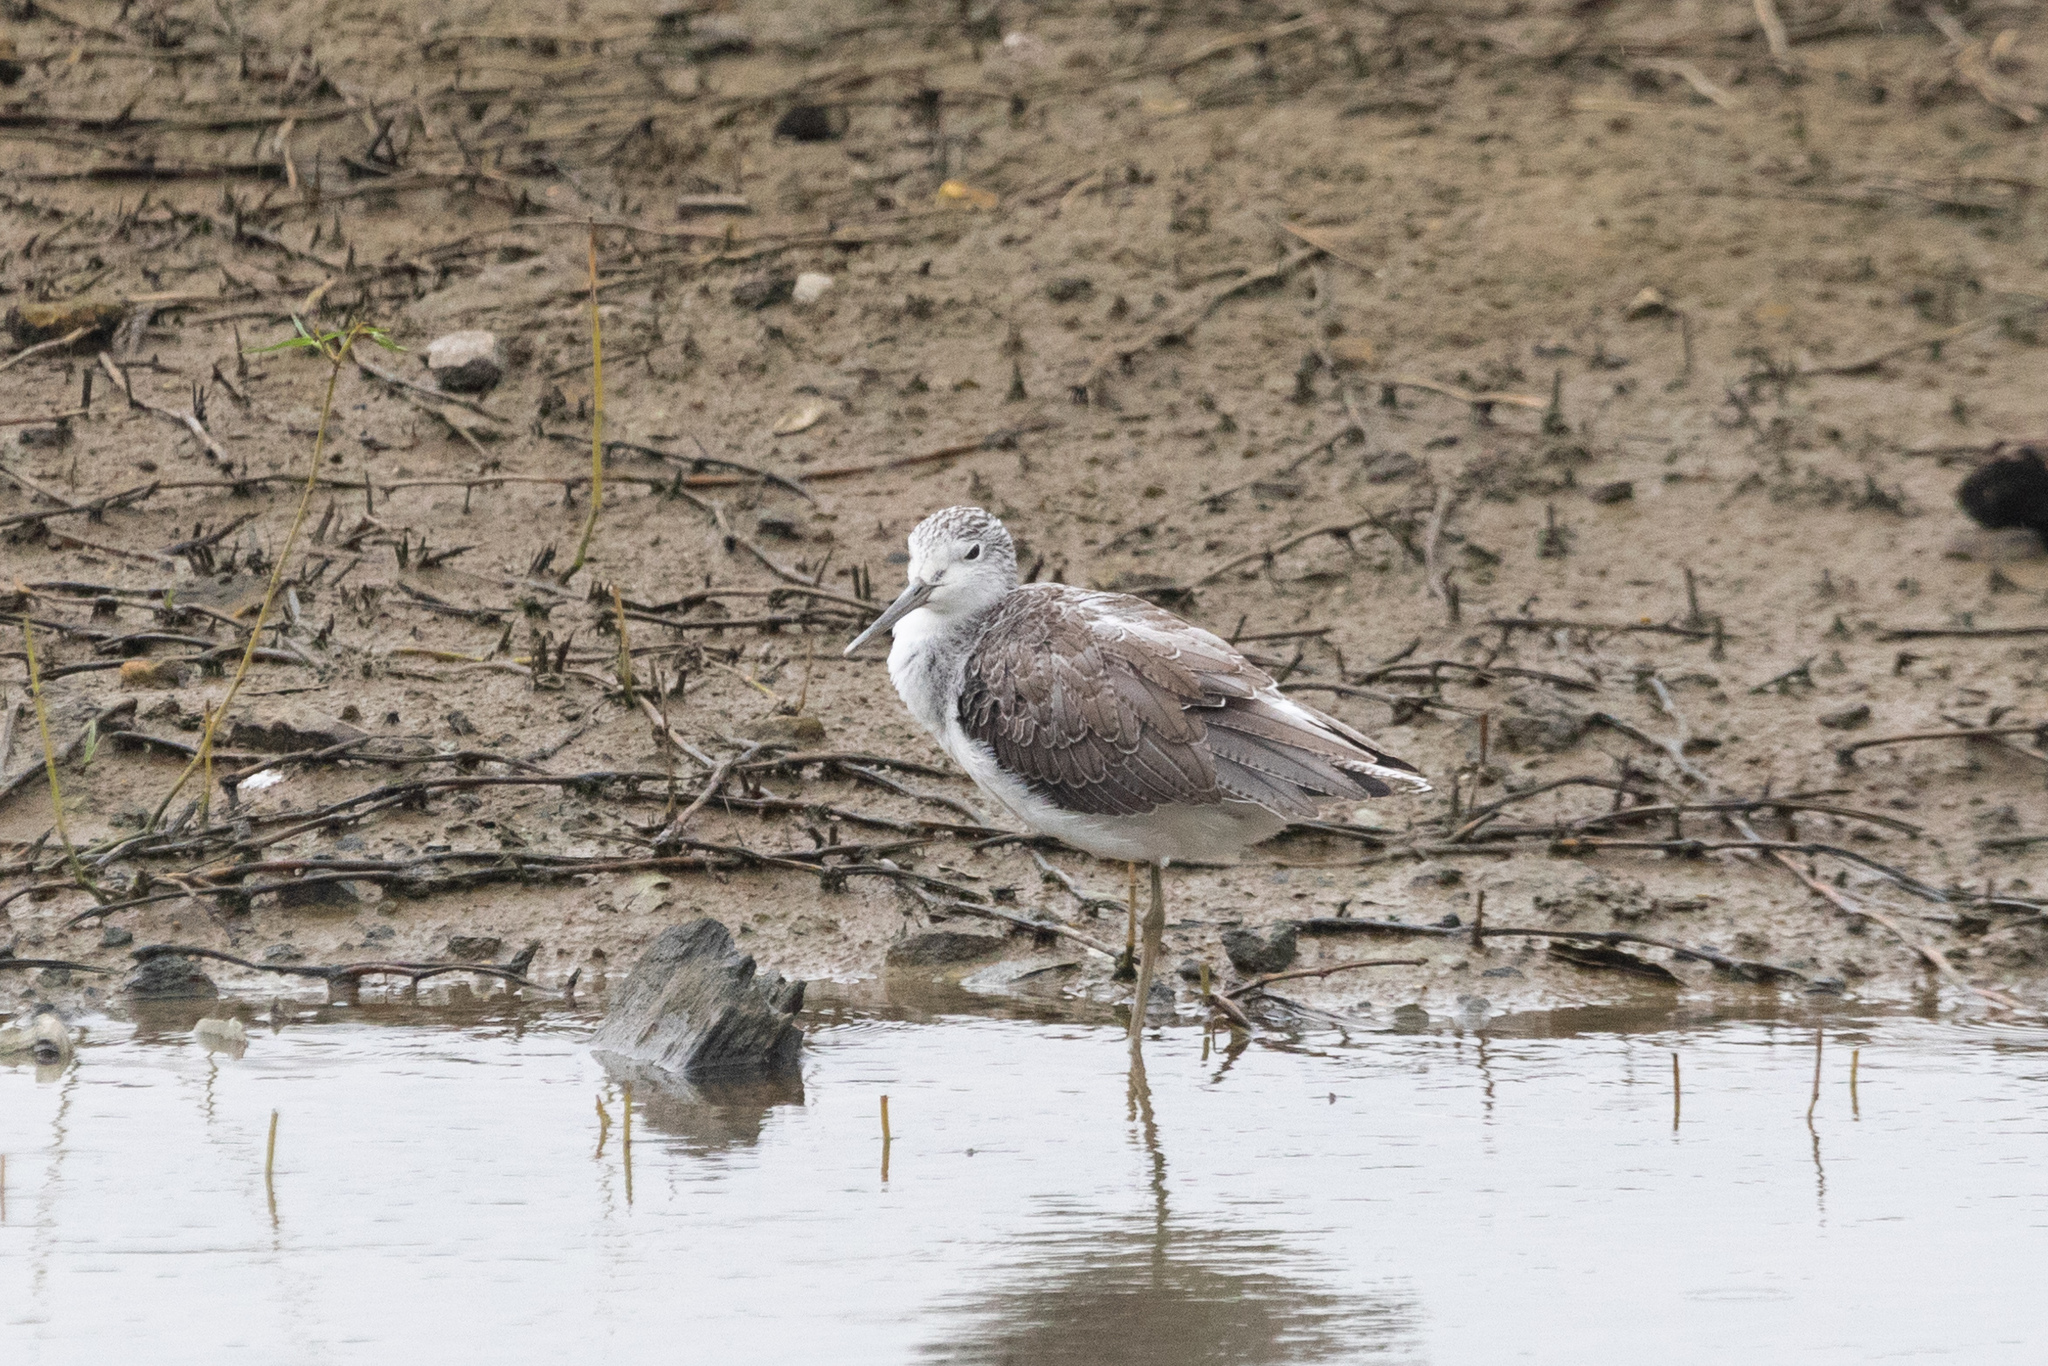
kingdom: Animalia
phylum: Chordata
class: Aves
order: Charadriiformes
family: Scolopacidae
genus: Tringa
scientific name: Tringa nebularia
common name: Common greenshank
